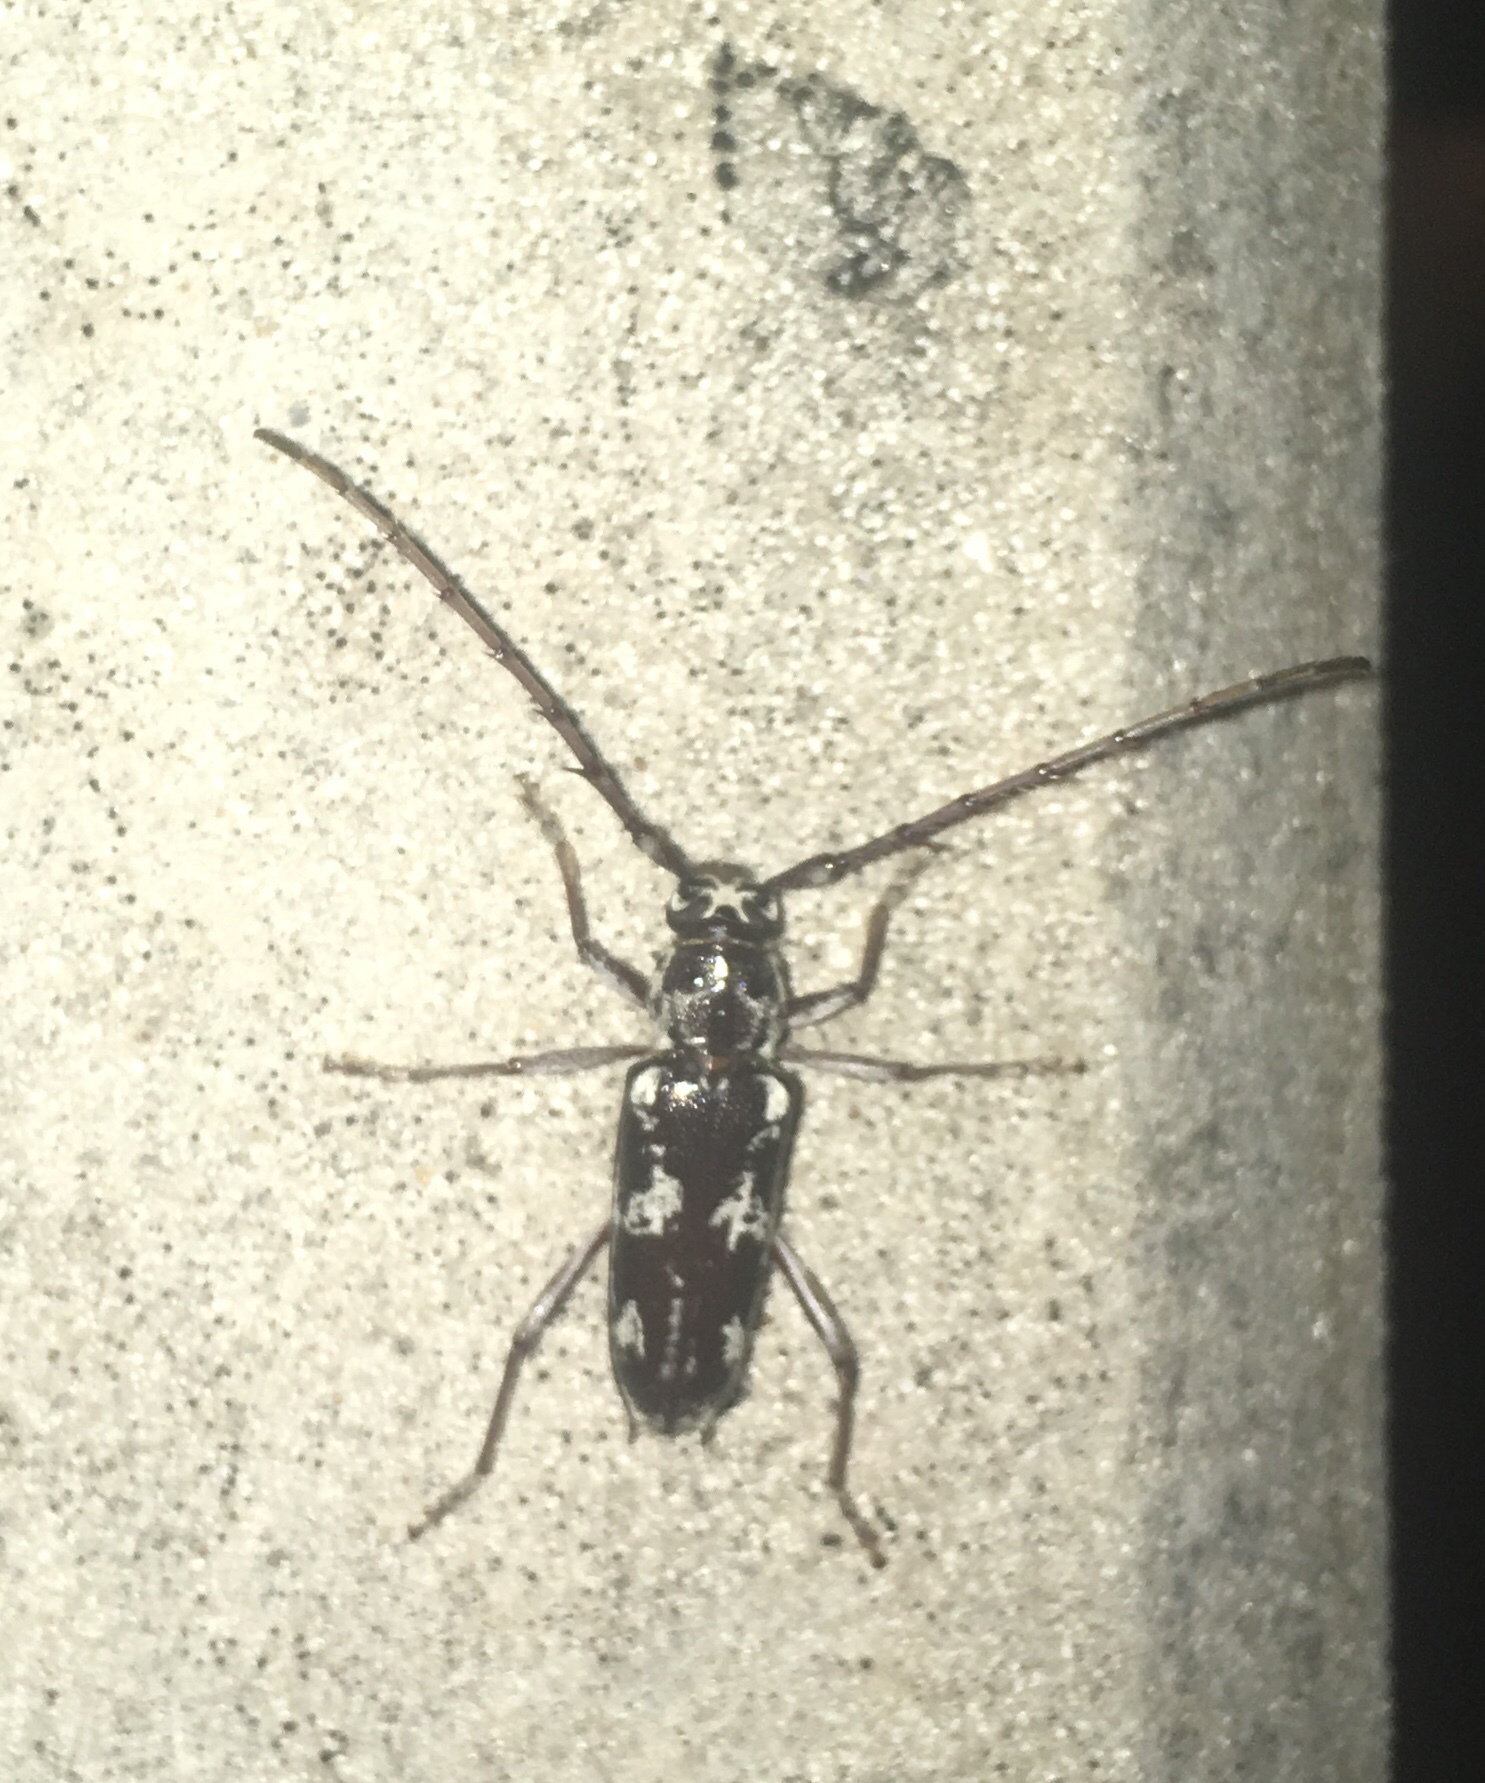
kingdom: Animalia
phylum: Arthropoda
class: Insecta
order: Coleoptera
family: Cerambycidae
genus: Elaphidion
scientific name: Elaphidion irroratum
